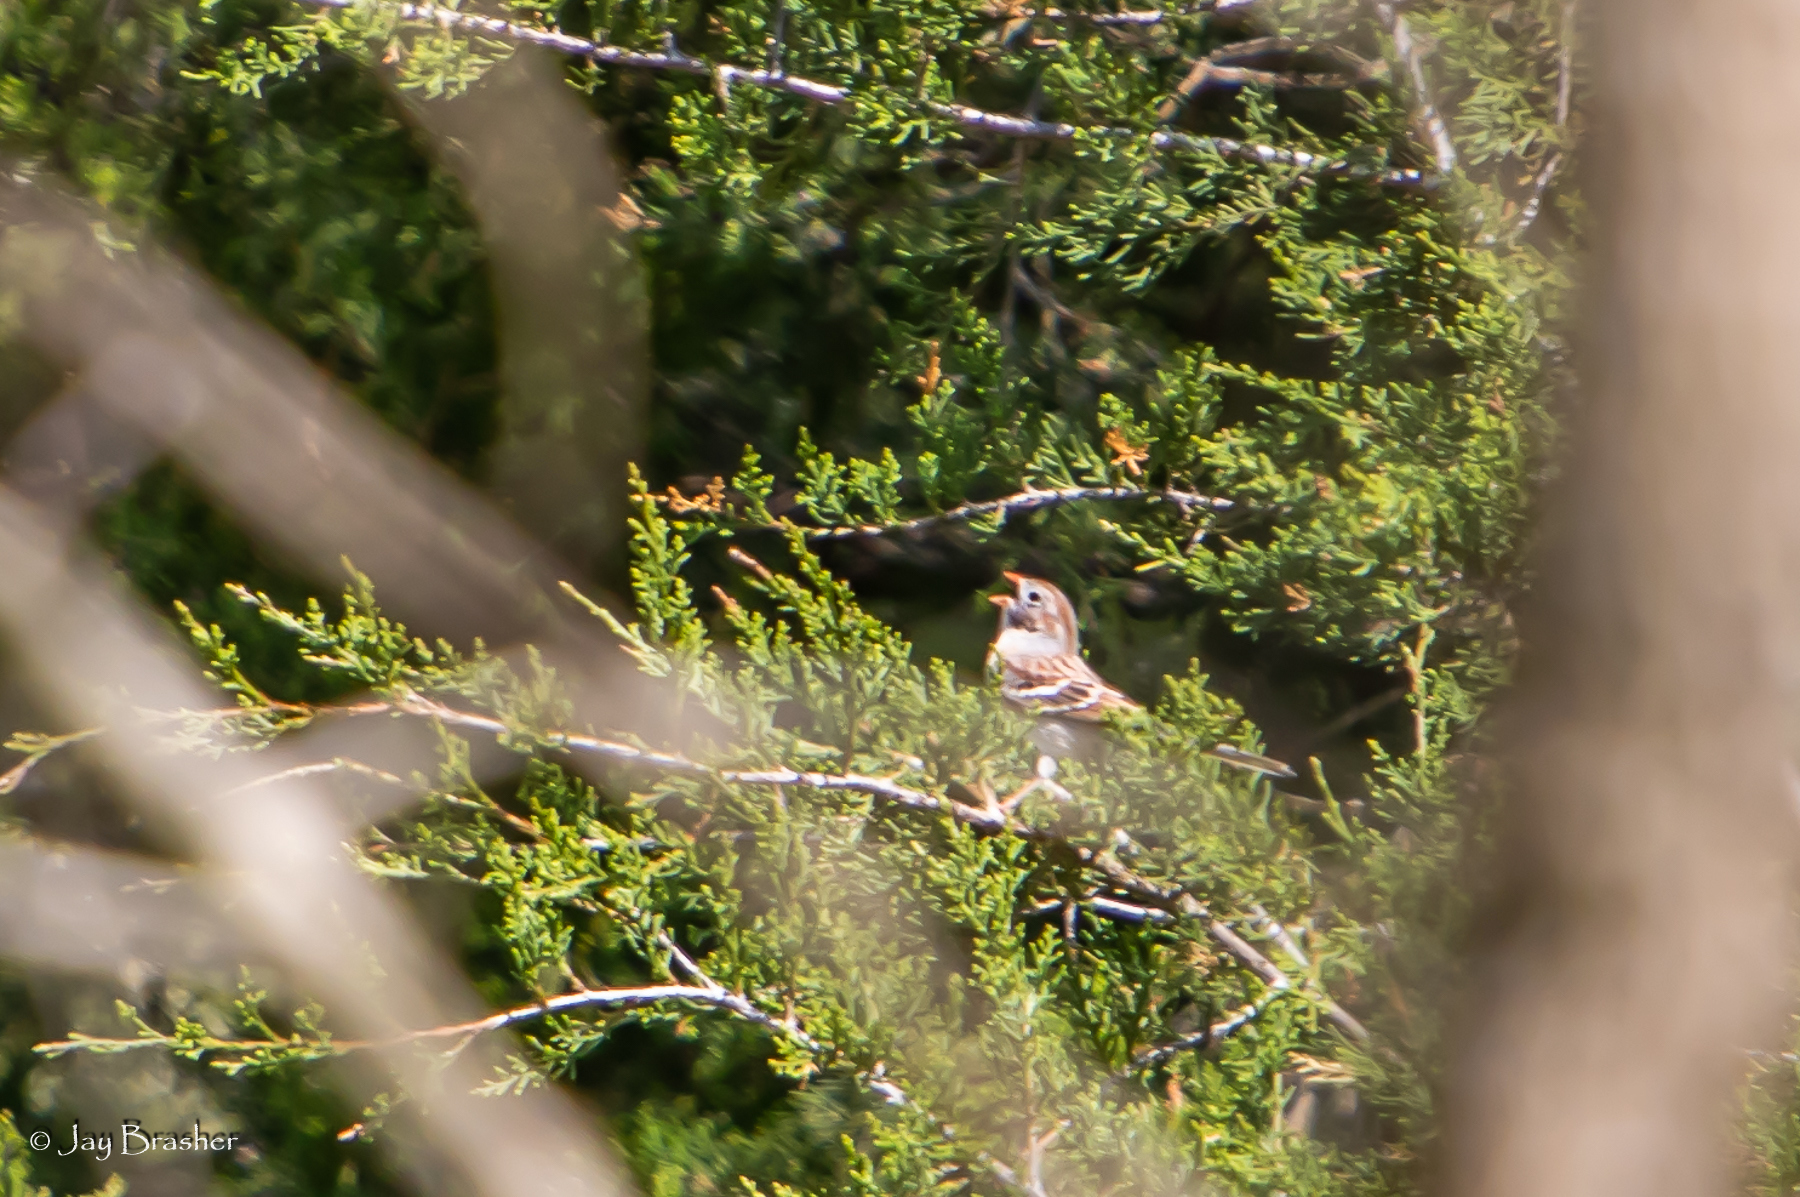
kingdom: Animalia
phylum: Chordata
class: Aves
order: Passeriformes
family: Passerellidae
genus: Spizella
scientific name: Spizella pusilla
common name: Field sparrow
